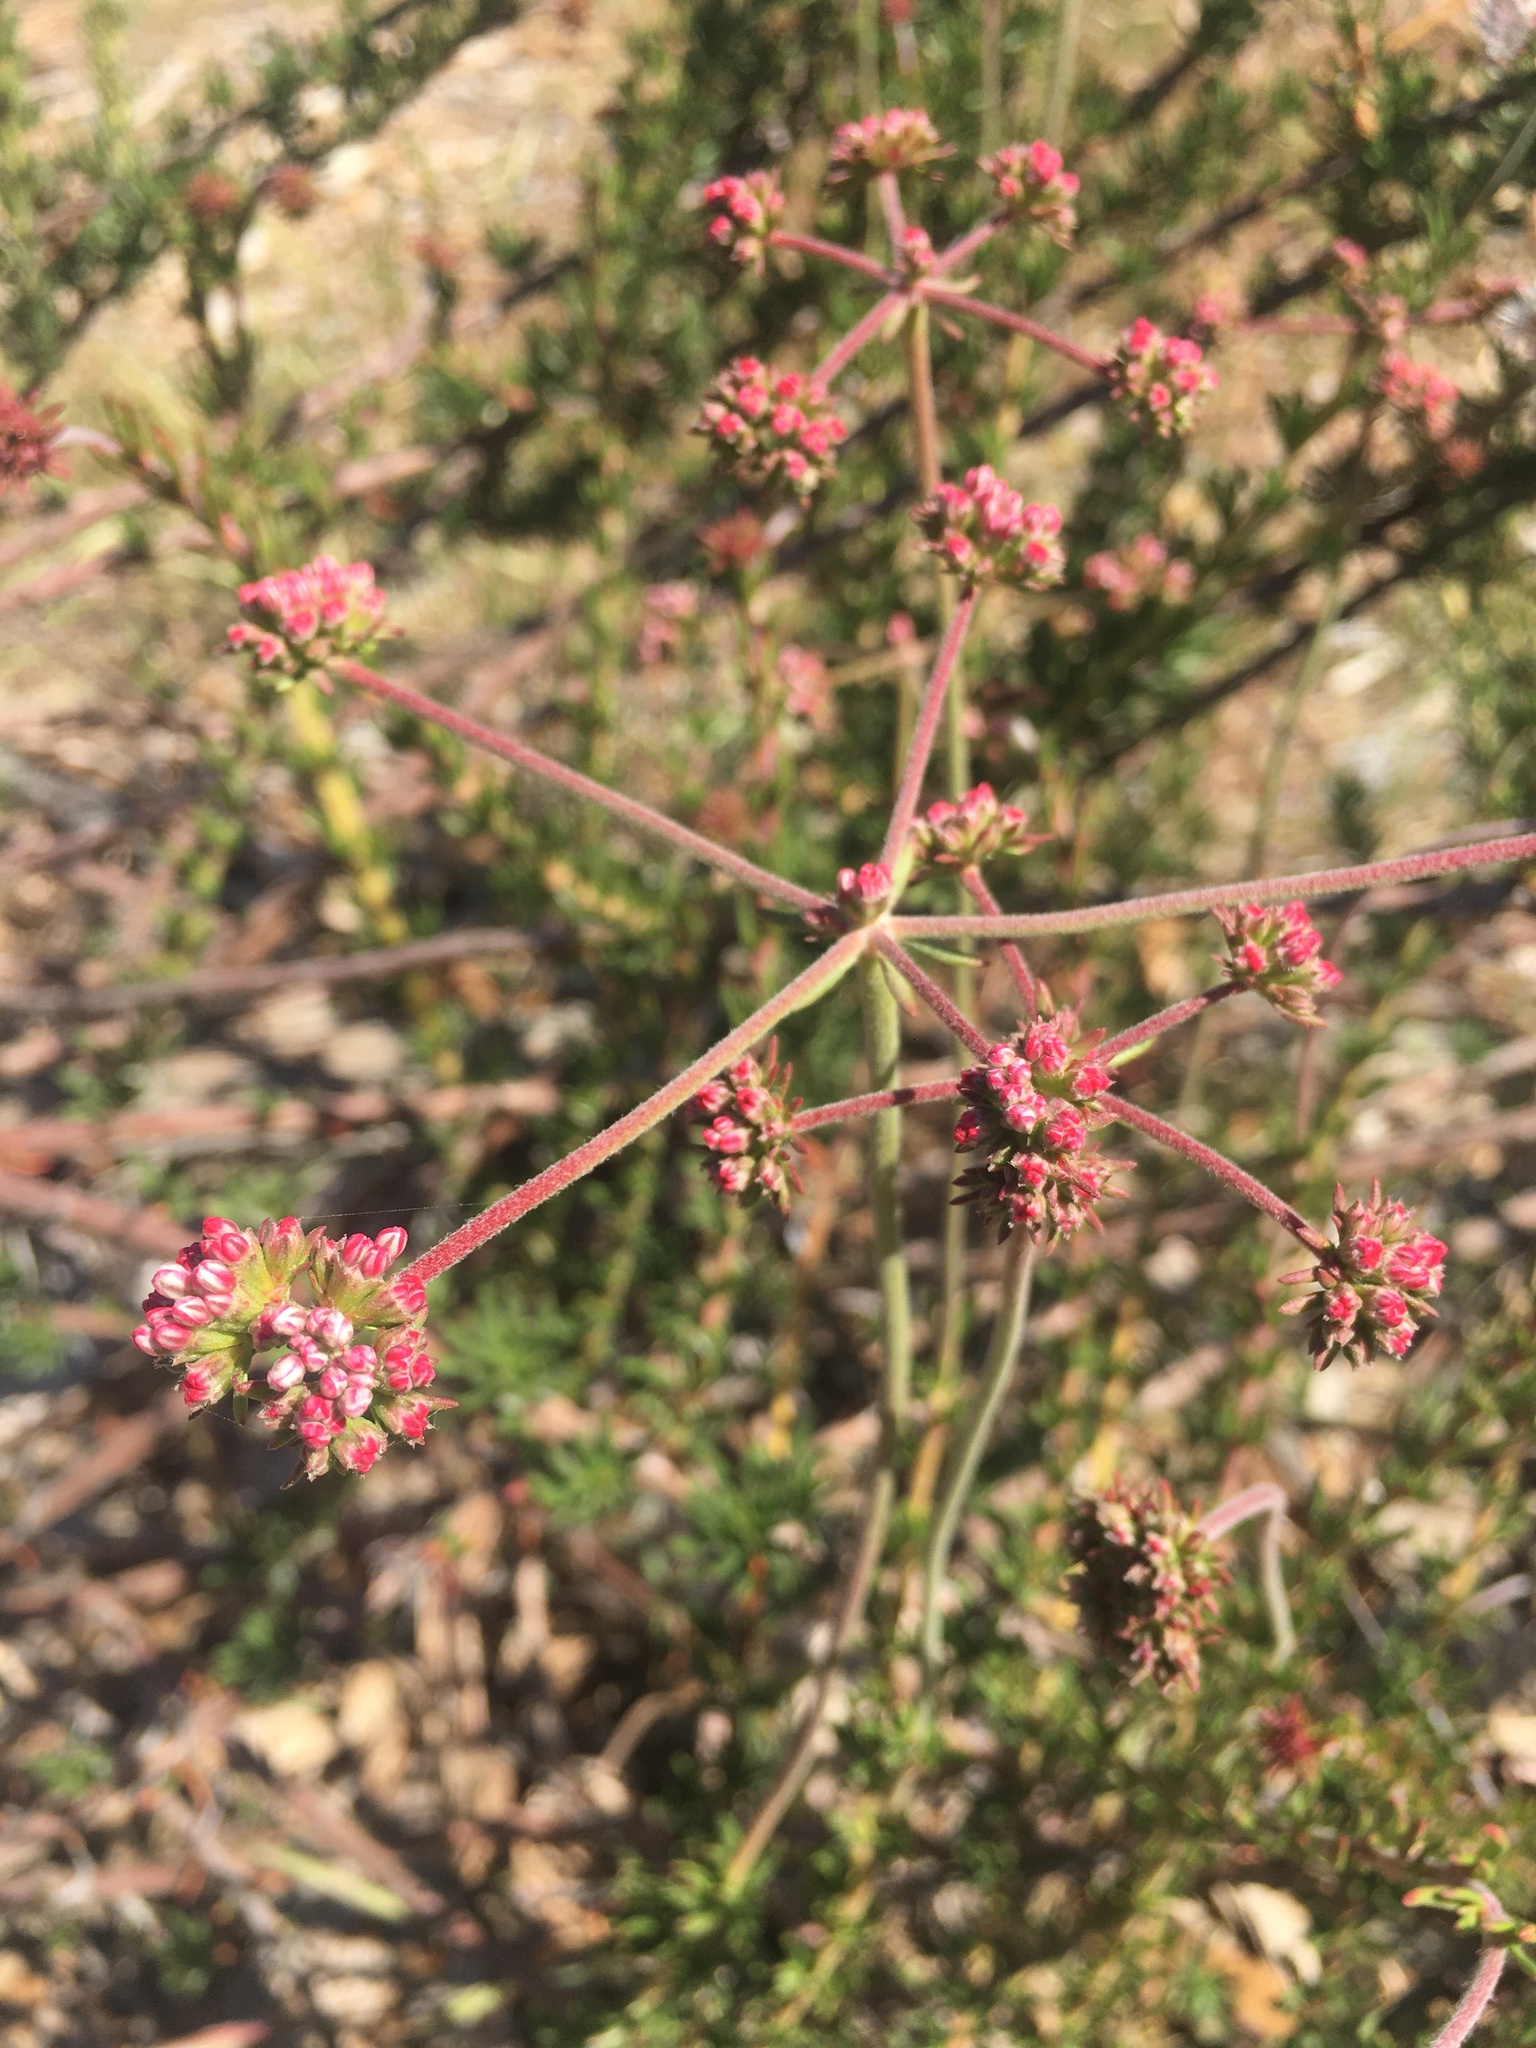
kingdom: Plantae
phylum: Tracheophyta
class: Magnoliopsida
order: Caryophyllales
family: Polygonaceae
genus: Eriogonum
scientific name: Eriogonum fasciculatum
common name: California wild buckwheat
